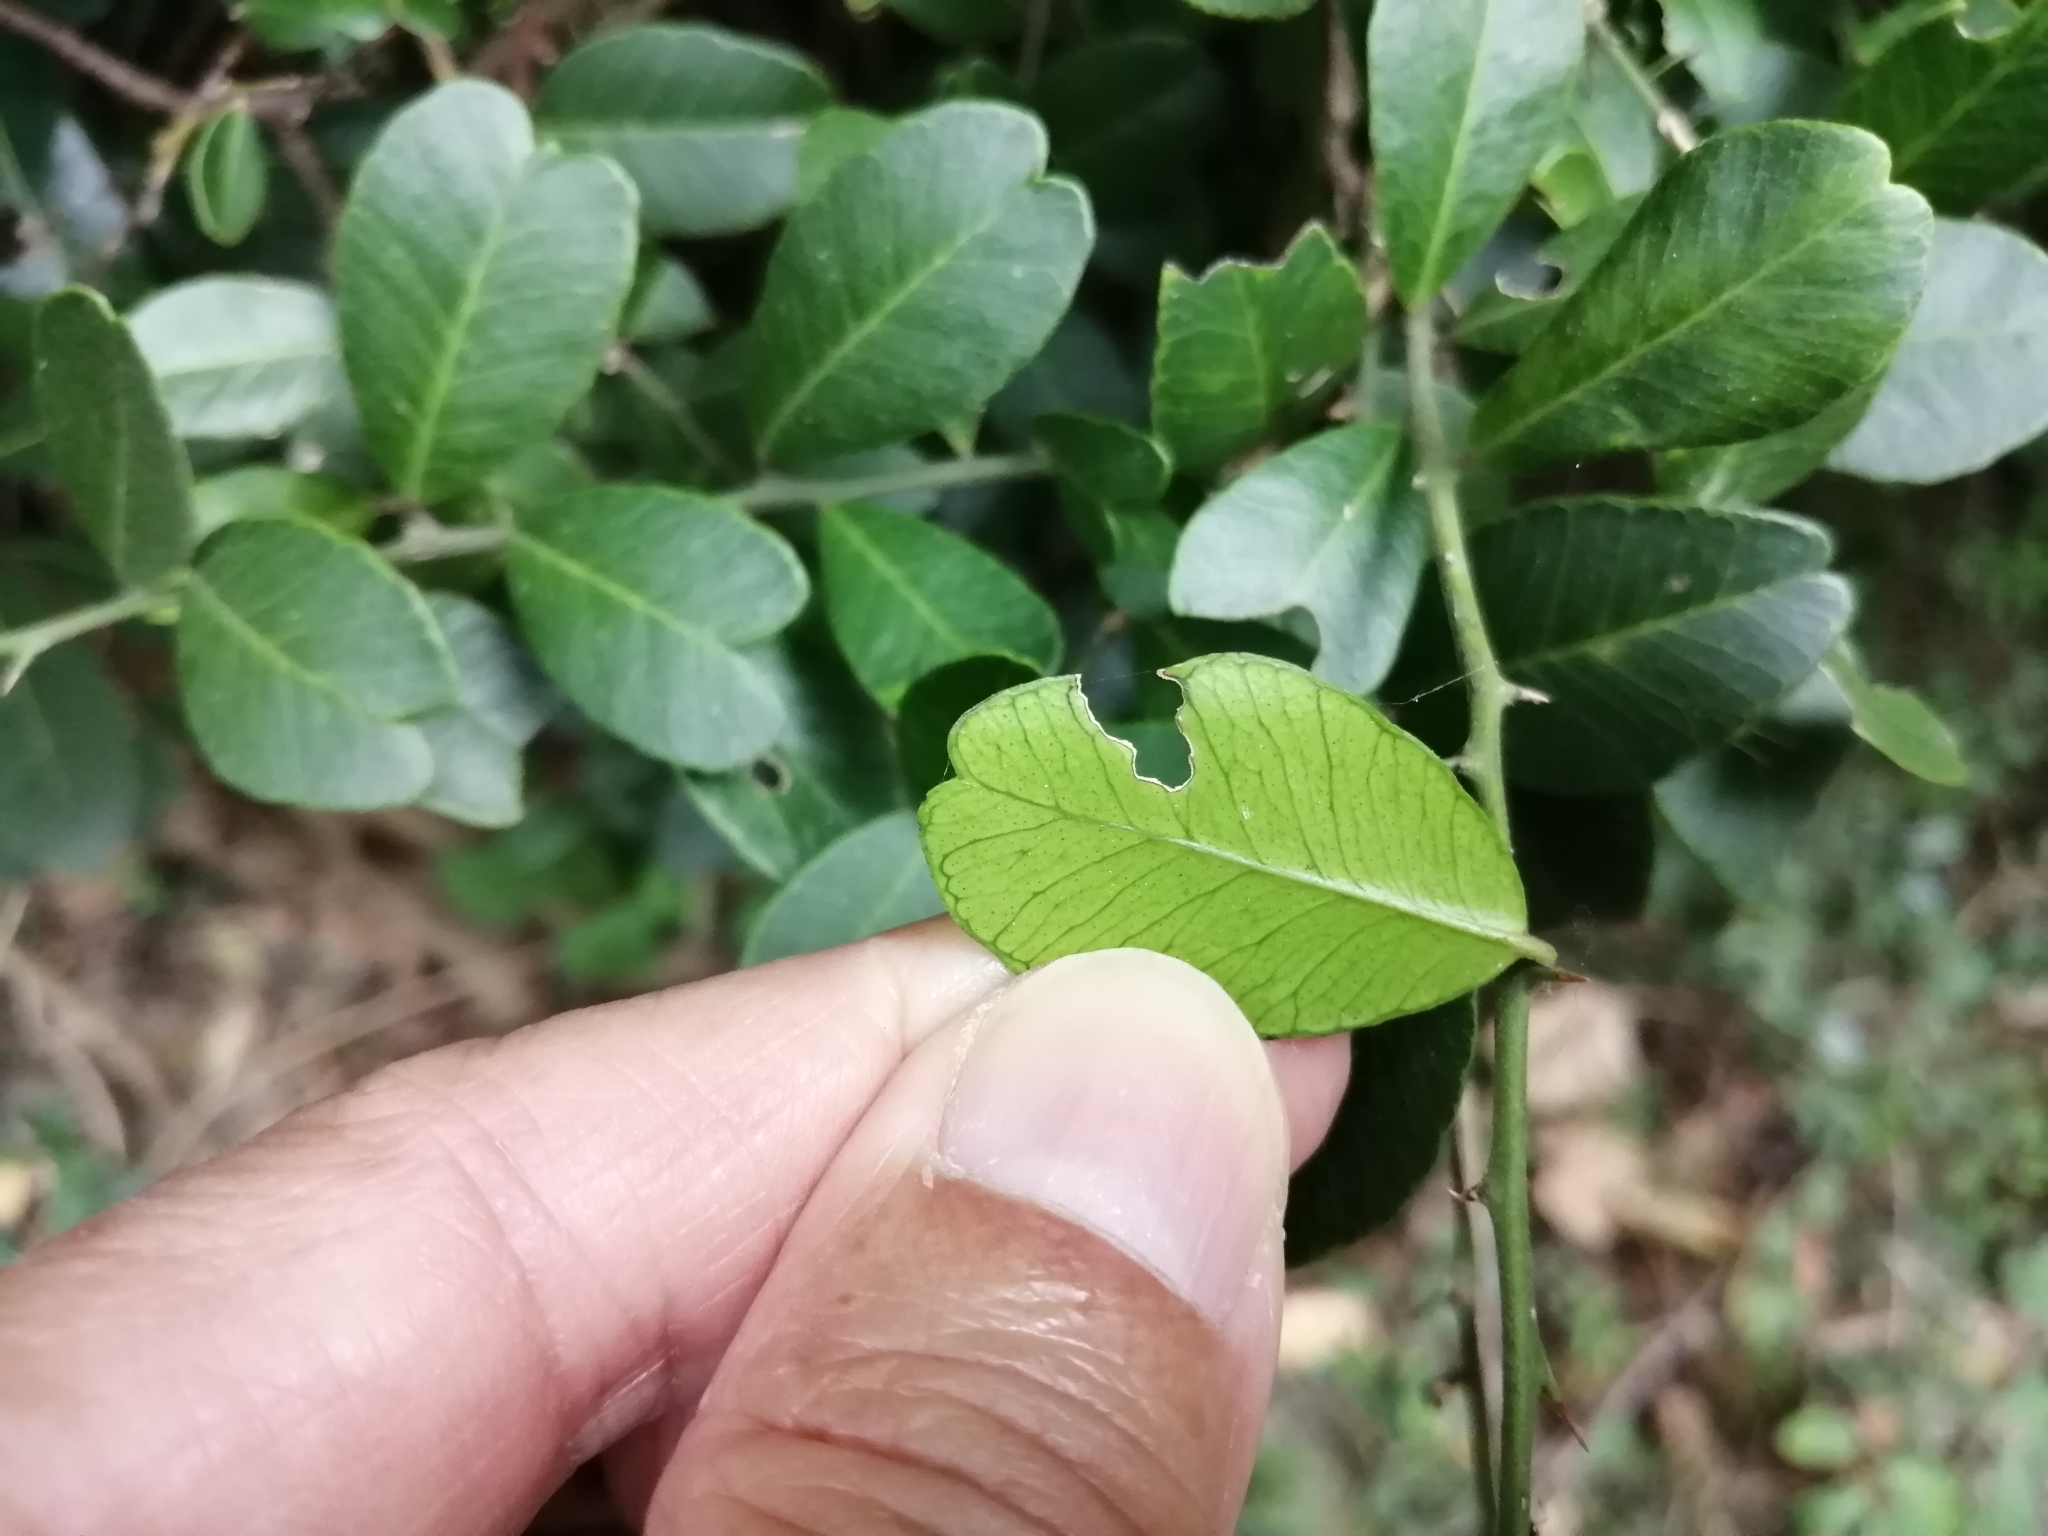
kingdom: Plantae
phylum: Tracheophyta
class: Magnoliopsida
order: Sapindales
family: Rutaceae
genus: Atalantia
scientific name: Atalantia buxifolia
